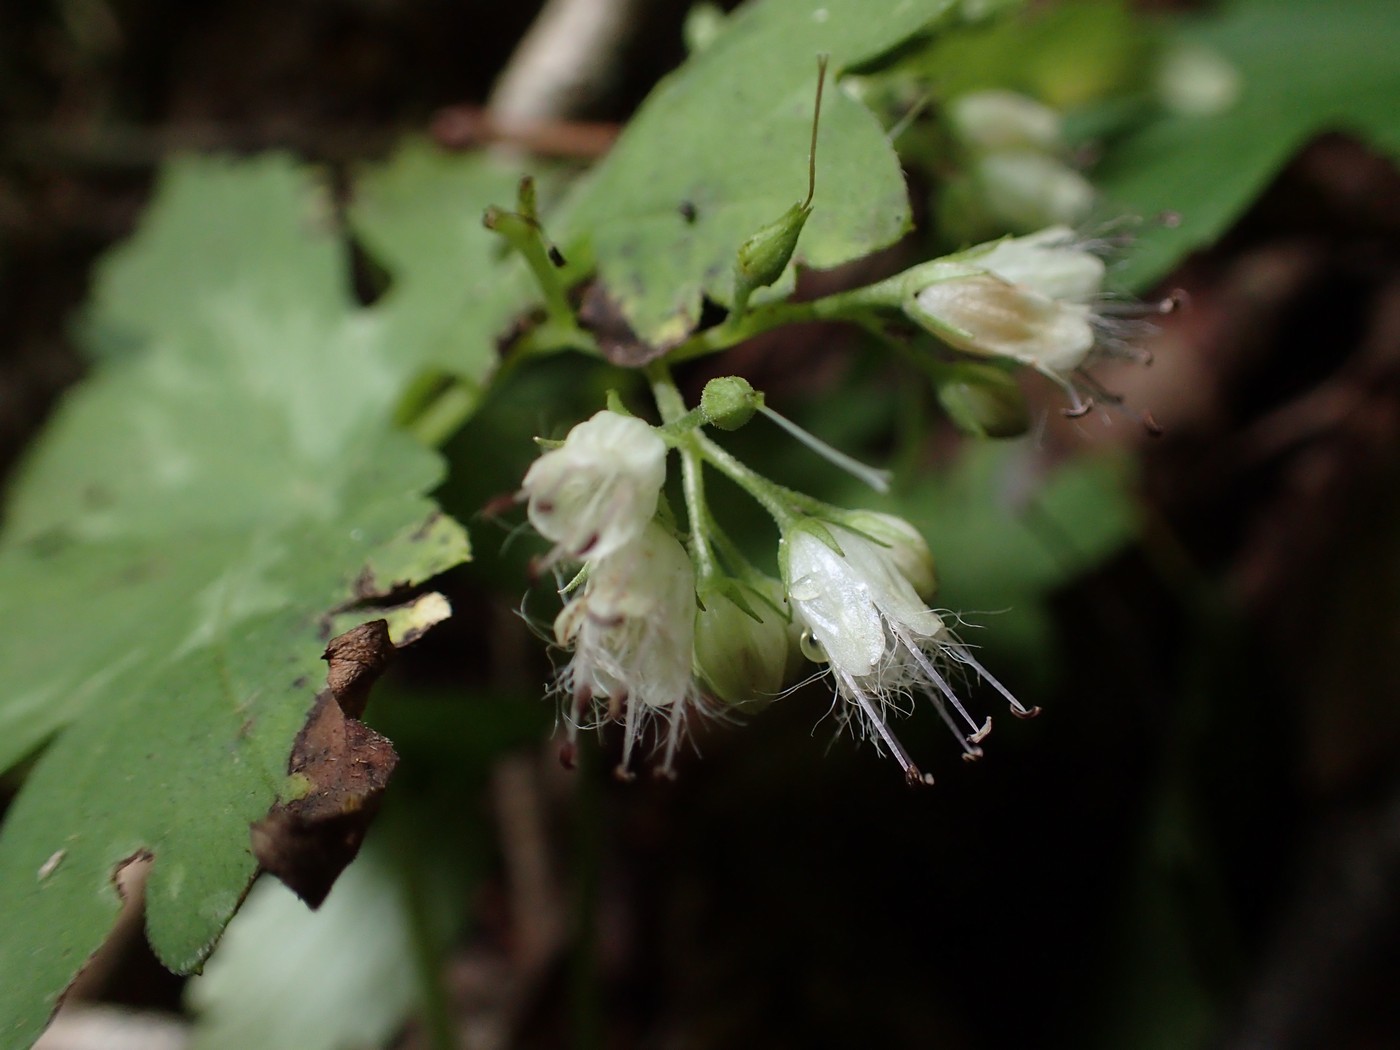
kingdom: Plantae
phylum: Tracheophyta
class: Magnoliopsida
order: Boraginales
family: Hydrophyllaceae
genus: Hydrophyllum
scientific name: Hydrophyllum canadense
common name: Canada waterleaf
